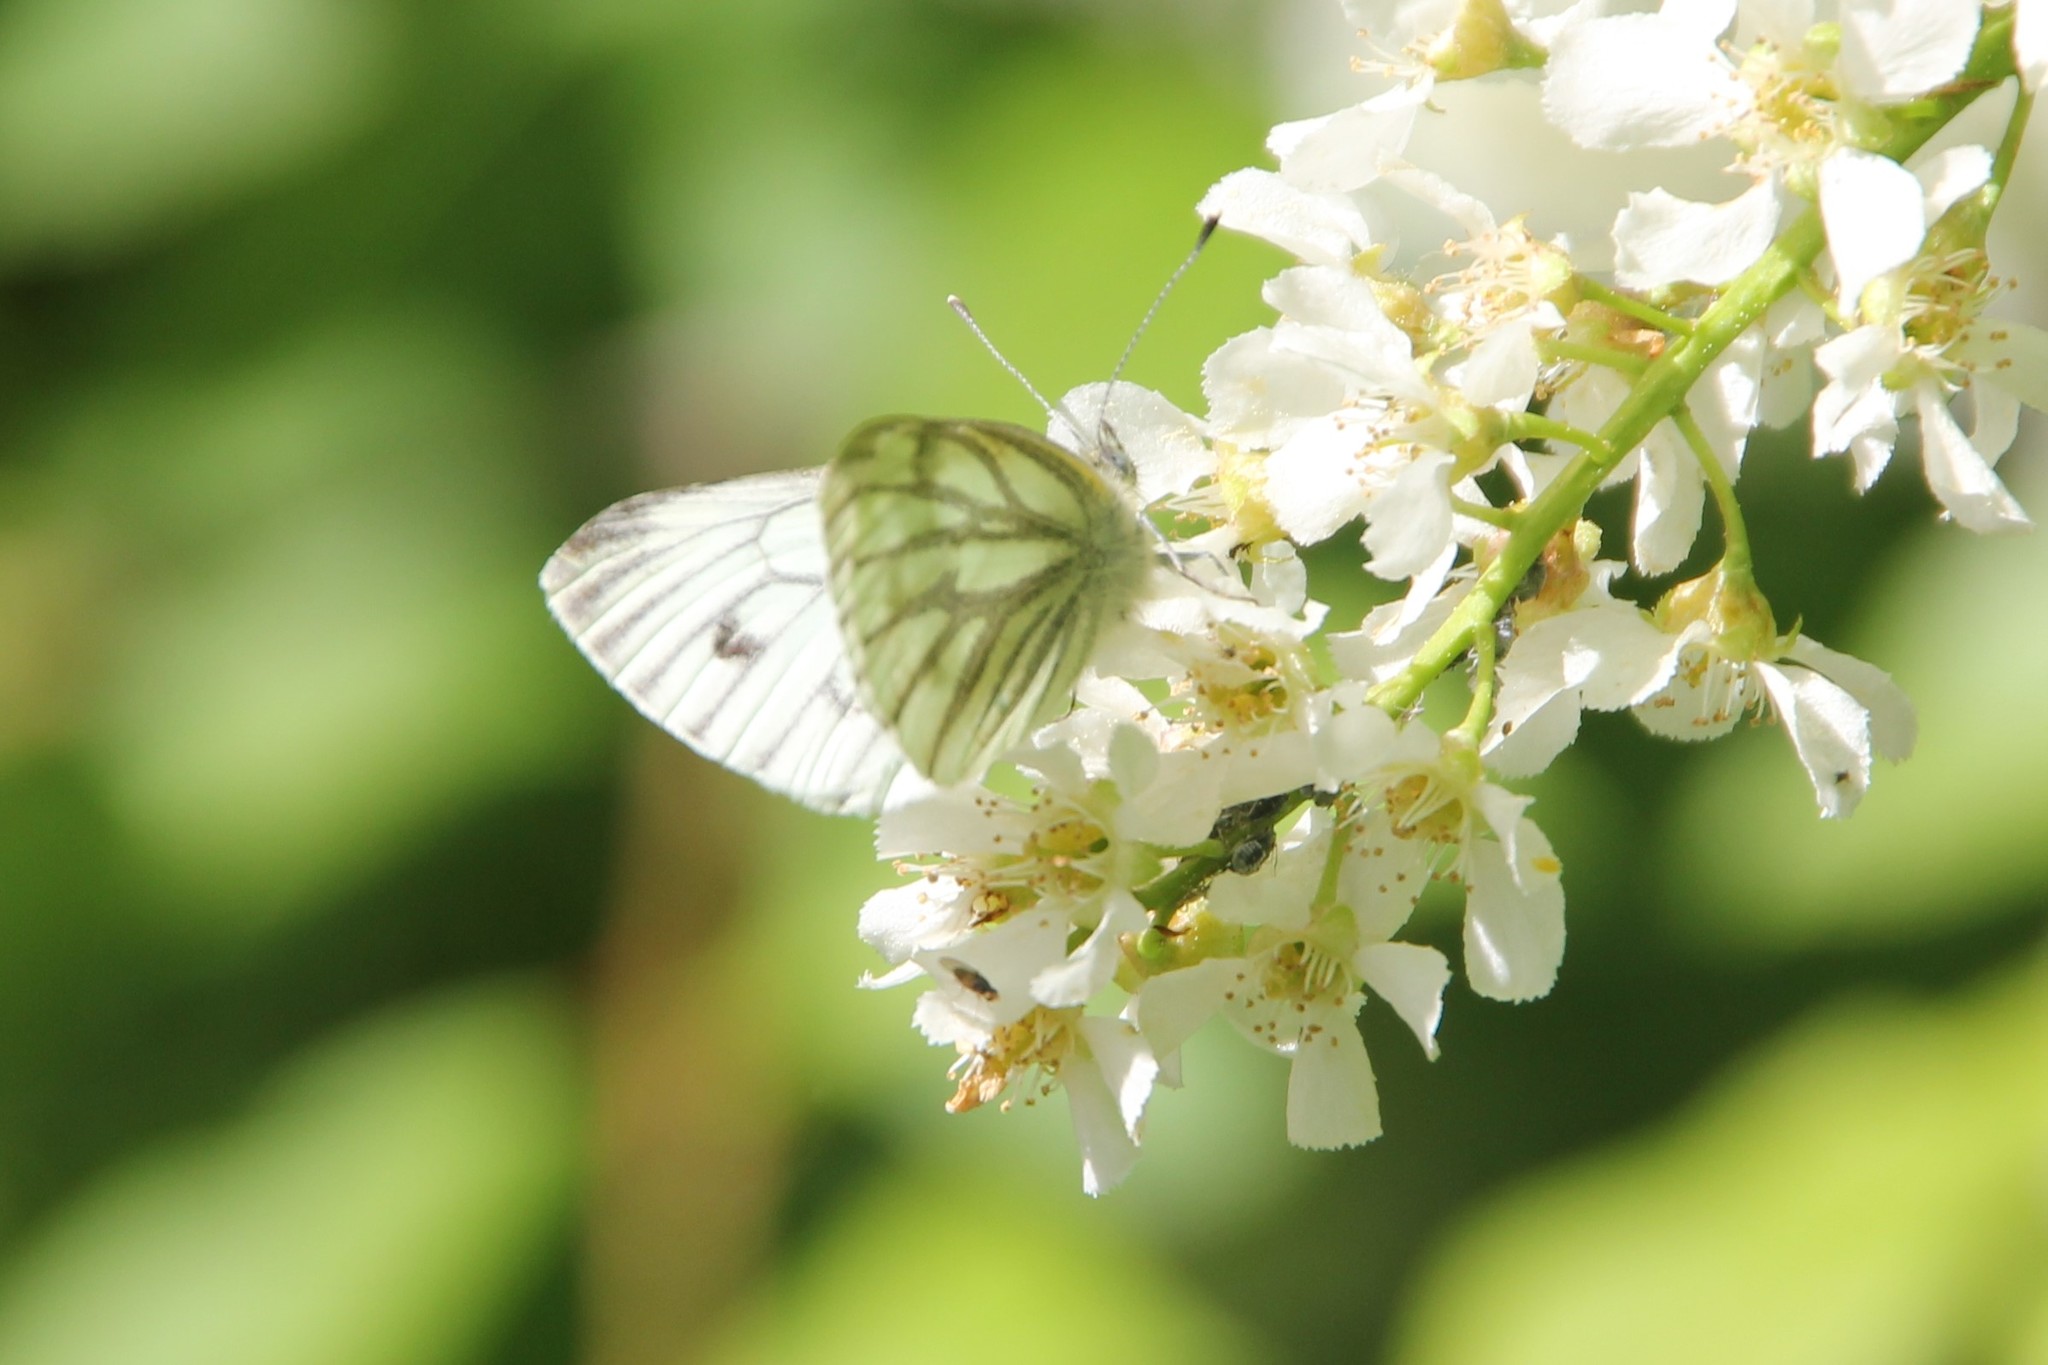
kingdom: Animalia
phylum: Arthropoda
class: Insecta
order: Lepidoptera
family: Pieridae
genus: Pieris
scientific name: Pieris napi
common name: Green-veined white
